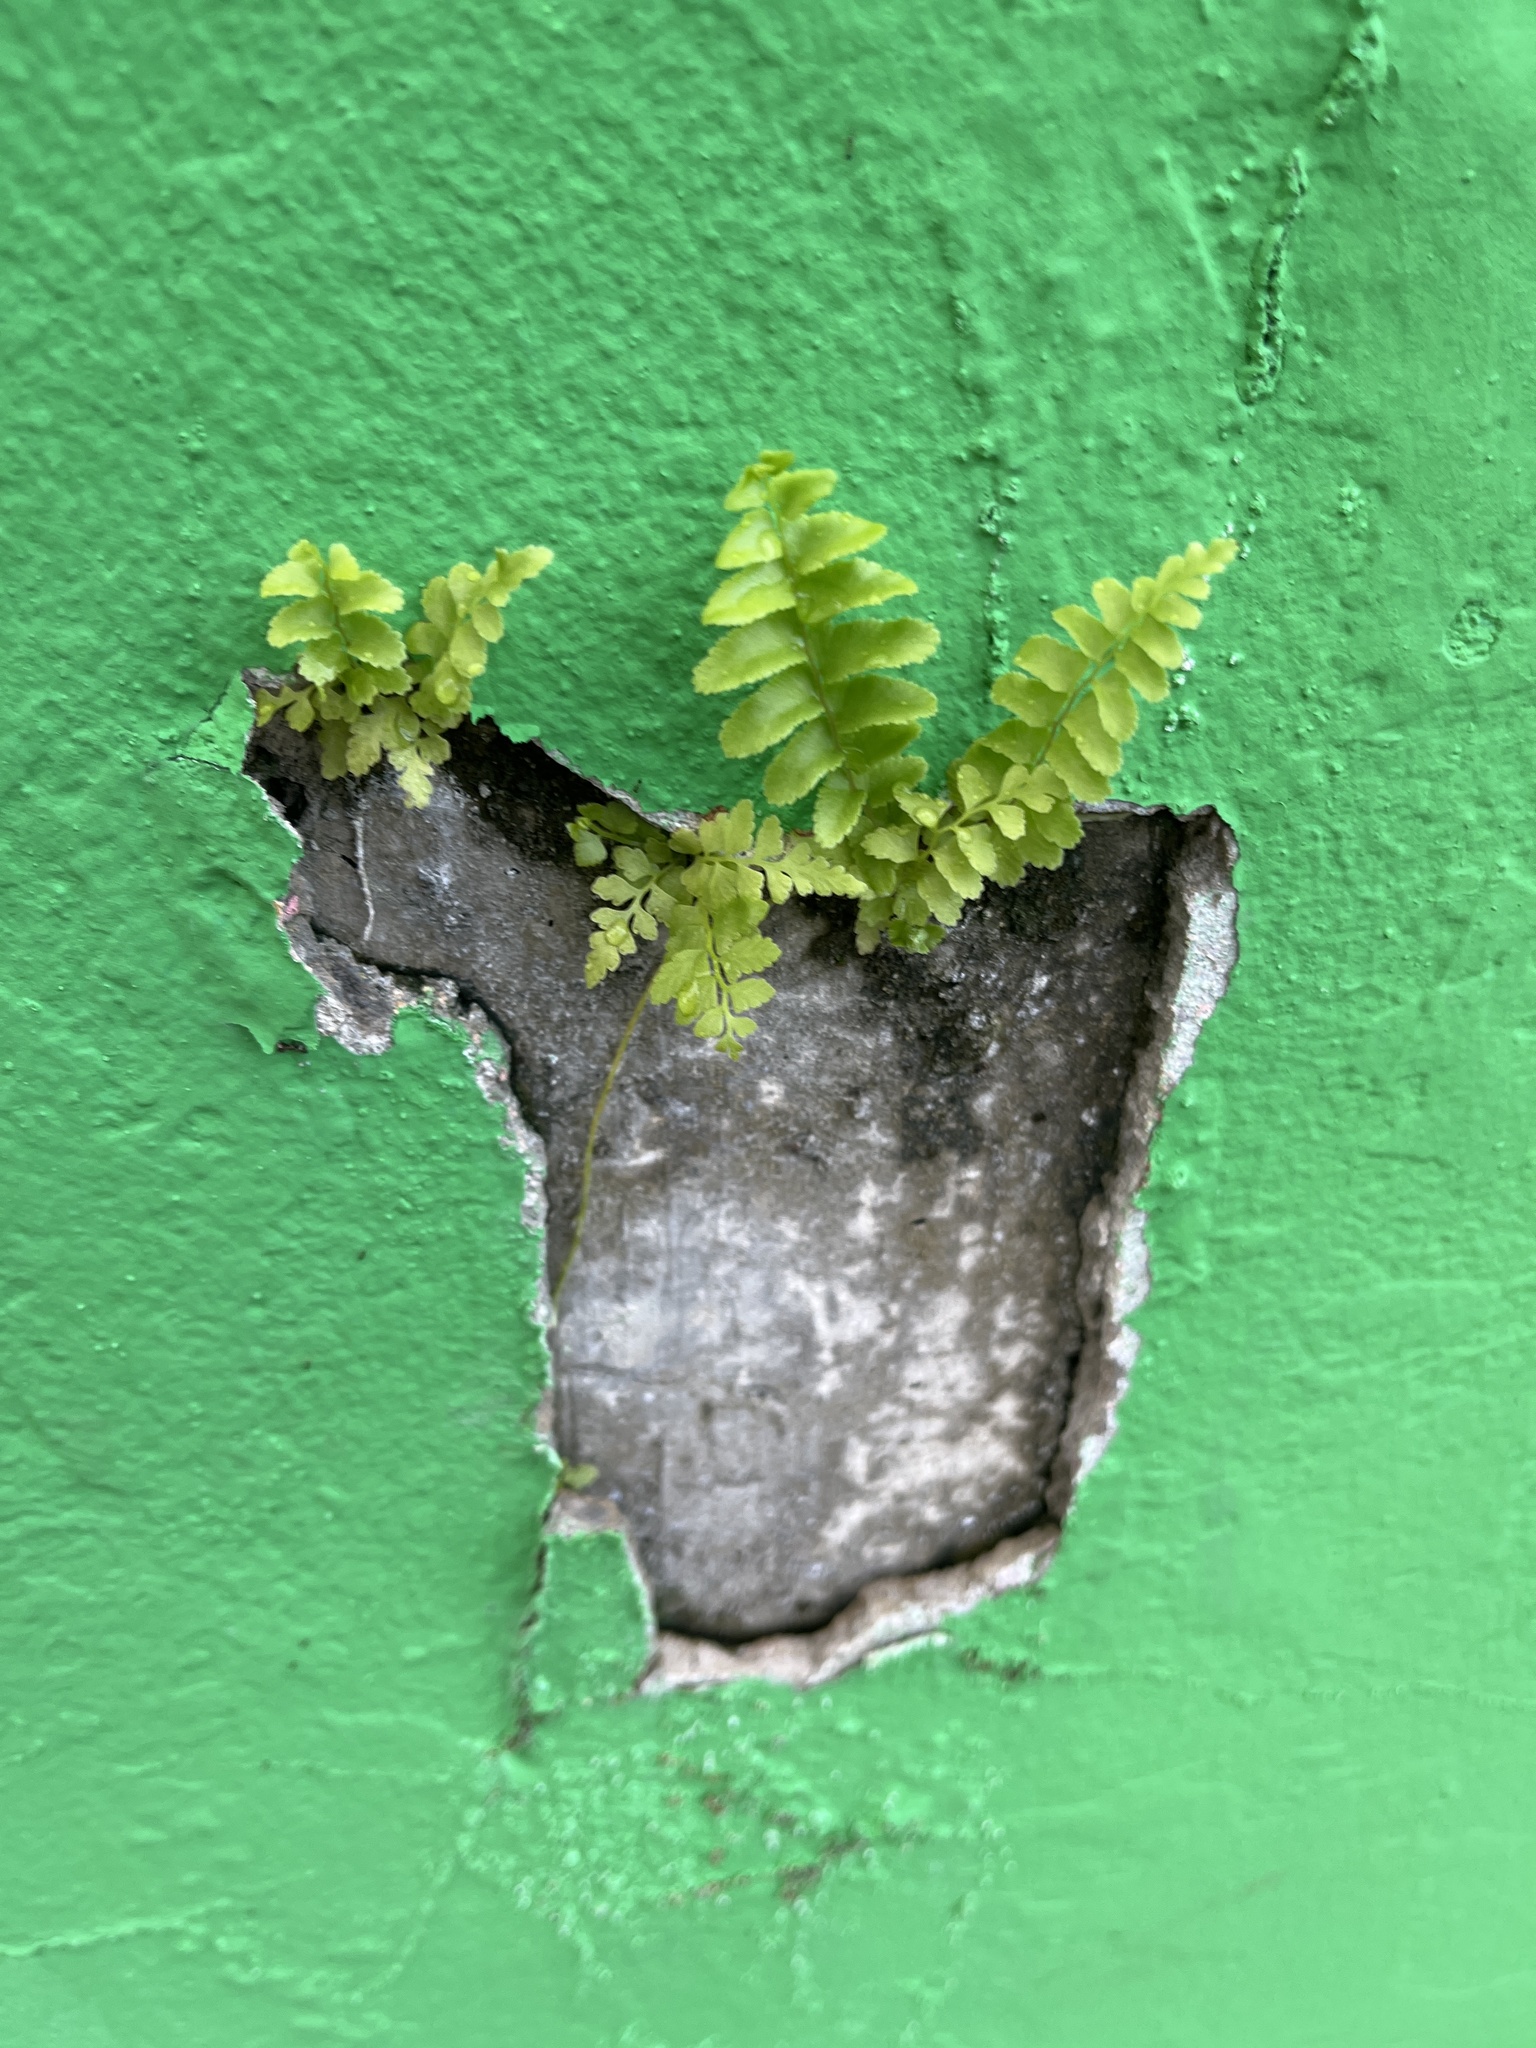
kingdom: Plantae
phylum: Tracheophyta
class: Polypodiopsida
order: Polypodiales
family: Nephrolepidaceae
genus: Nephrolepis
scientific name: Nephrolepis brownii
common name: Asian swordfern
